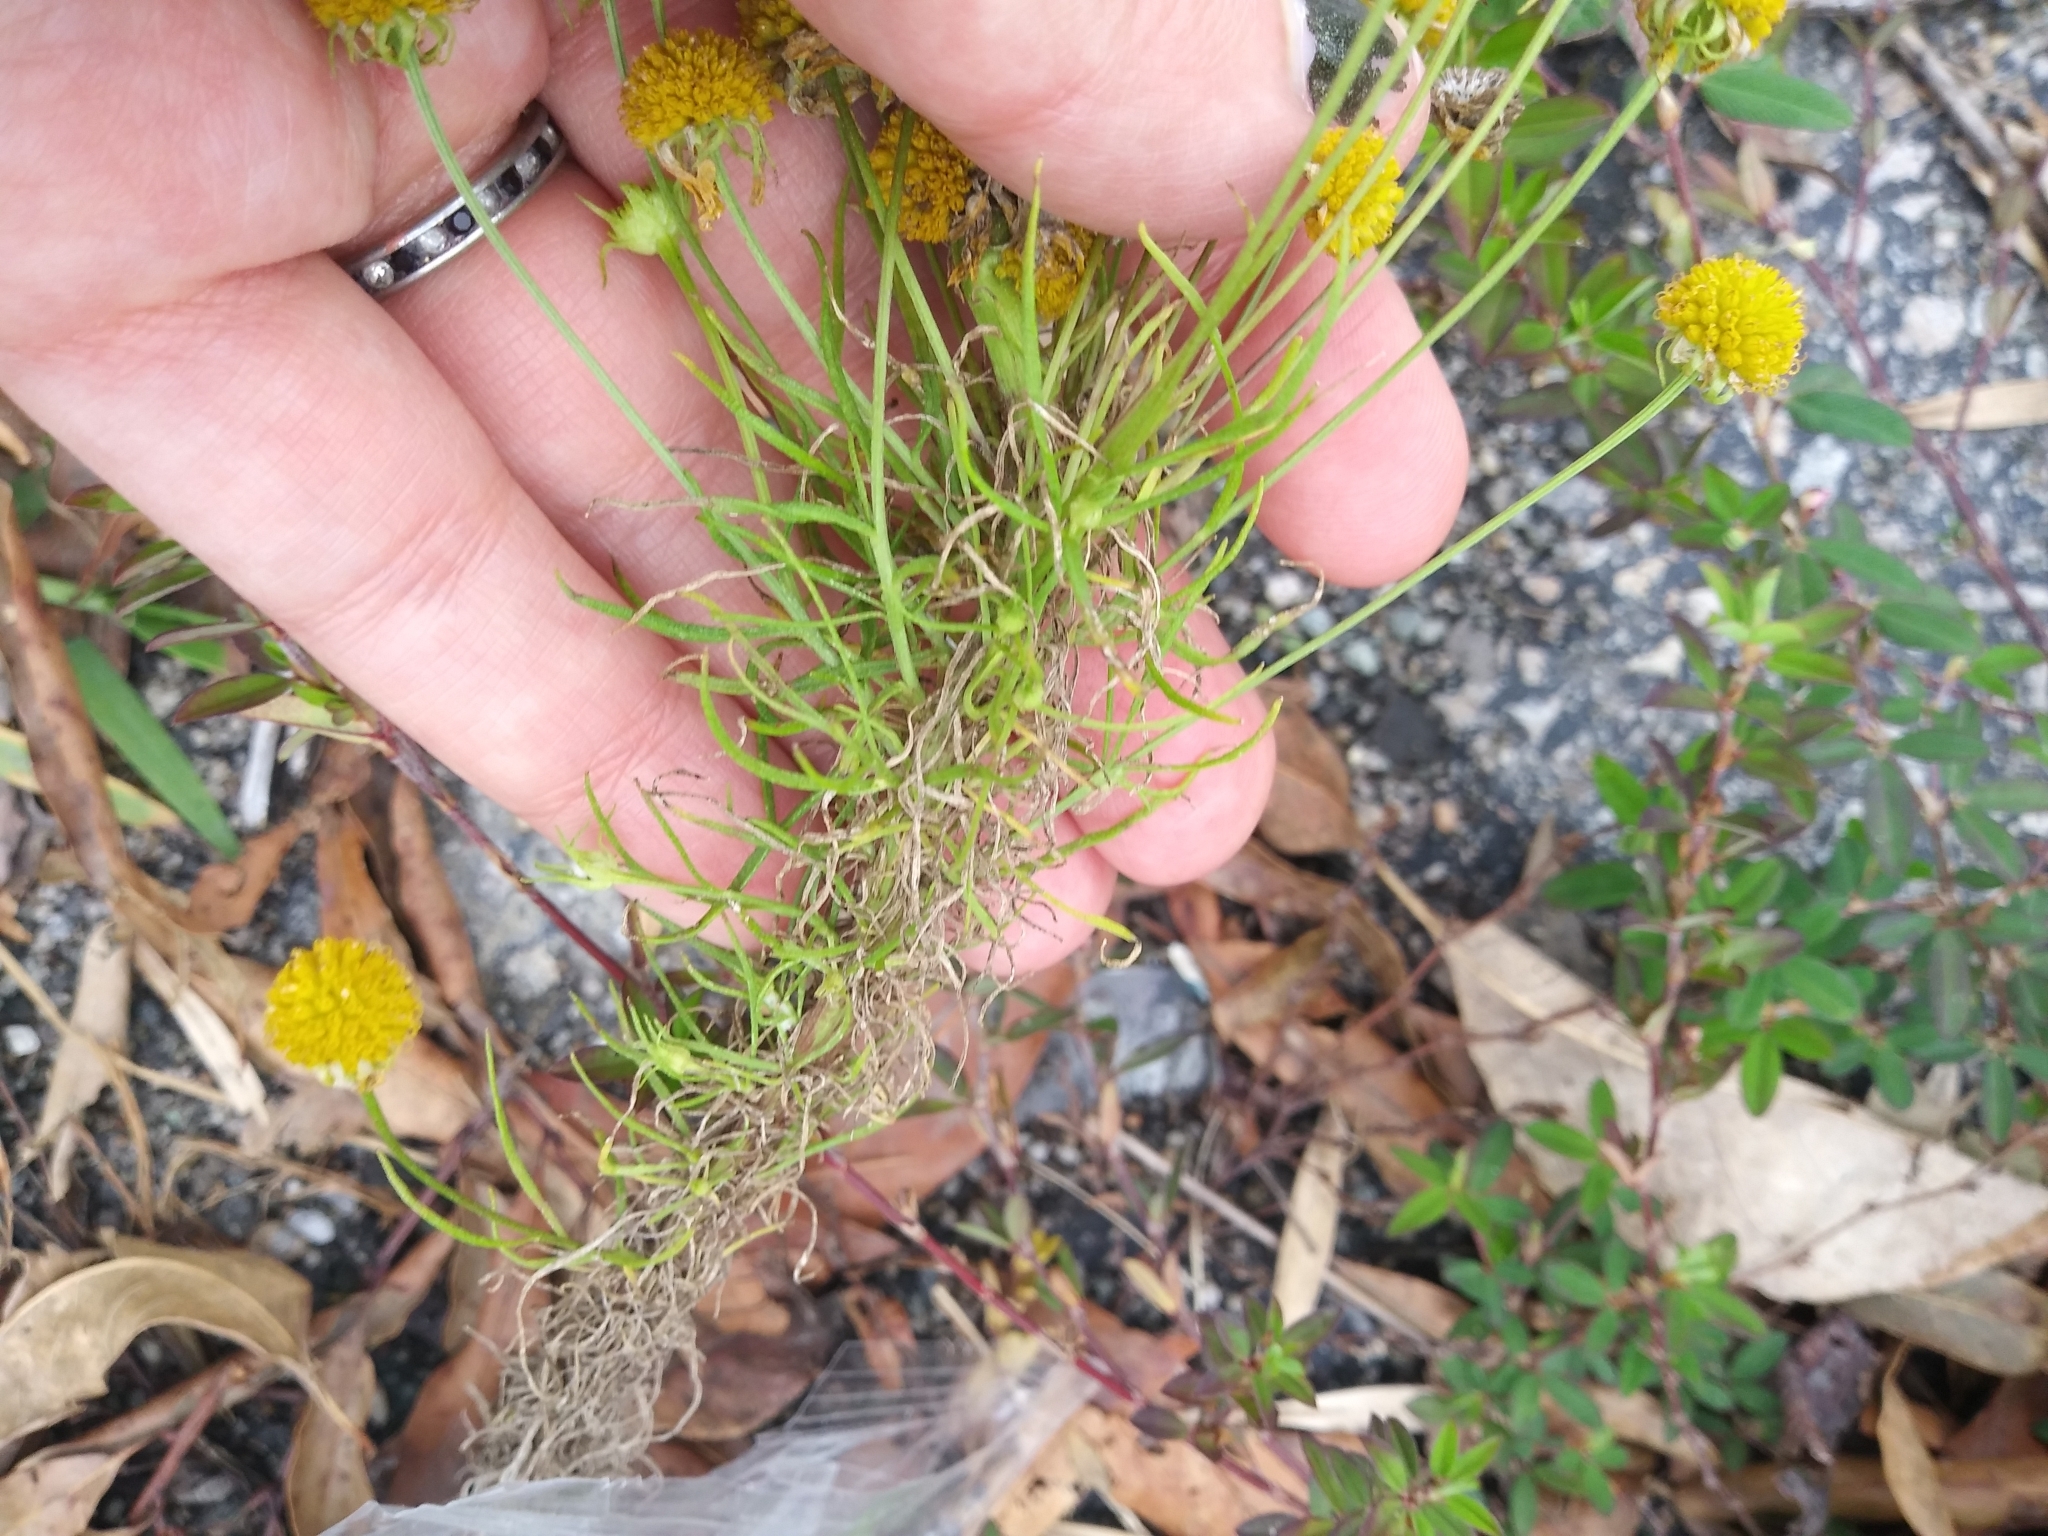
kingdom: Plantae
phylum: Tracheophyta
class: Magnoliopsida
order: Asterales
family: Asteraceae
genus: Helenium
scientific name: Helenium amarum
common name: Bitter sneezeweed
